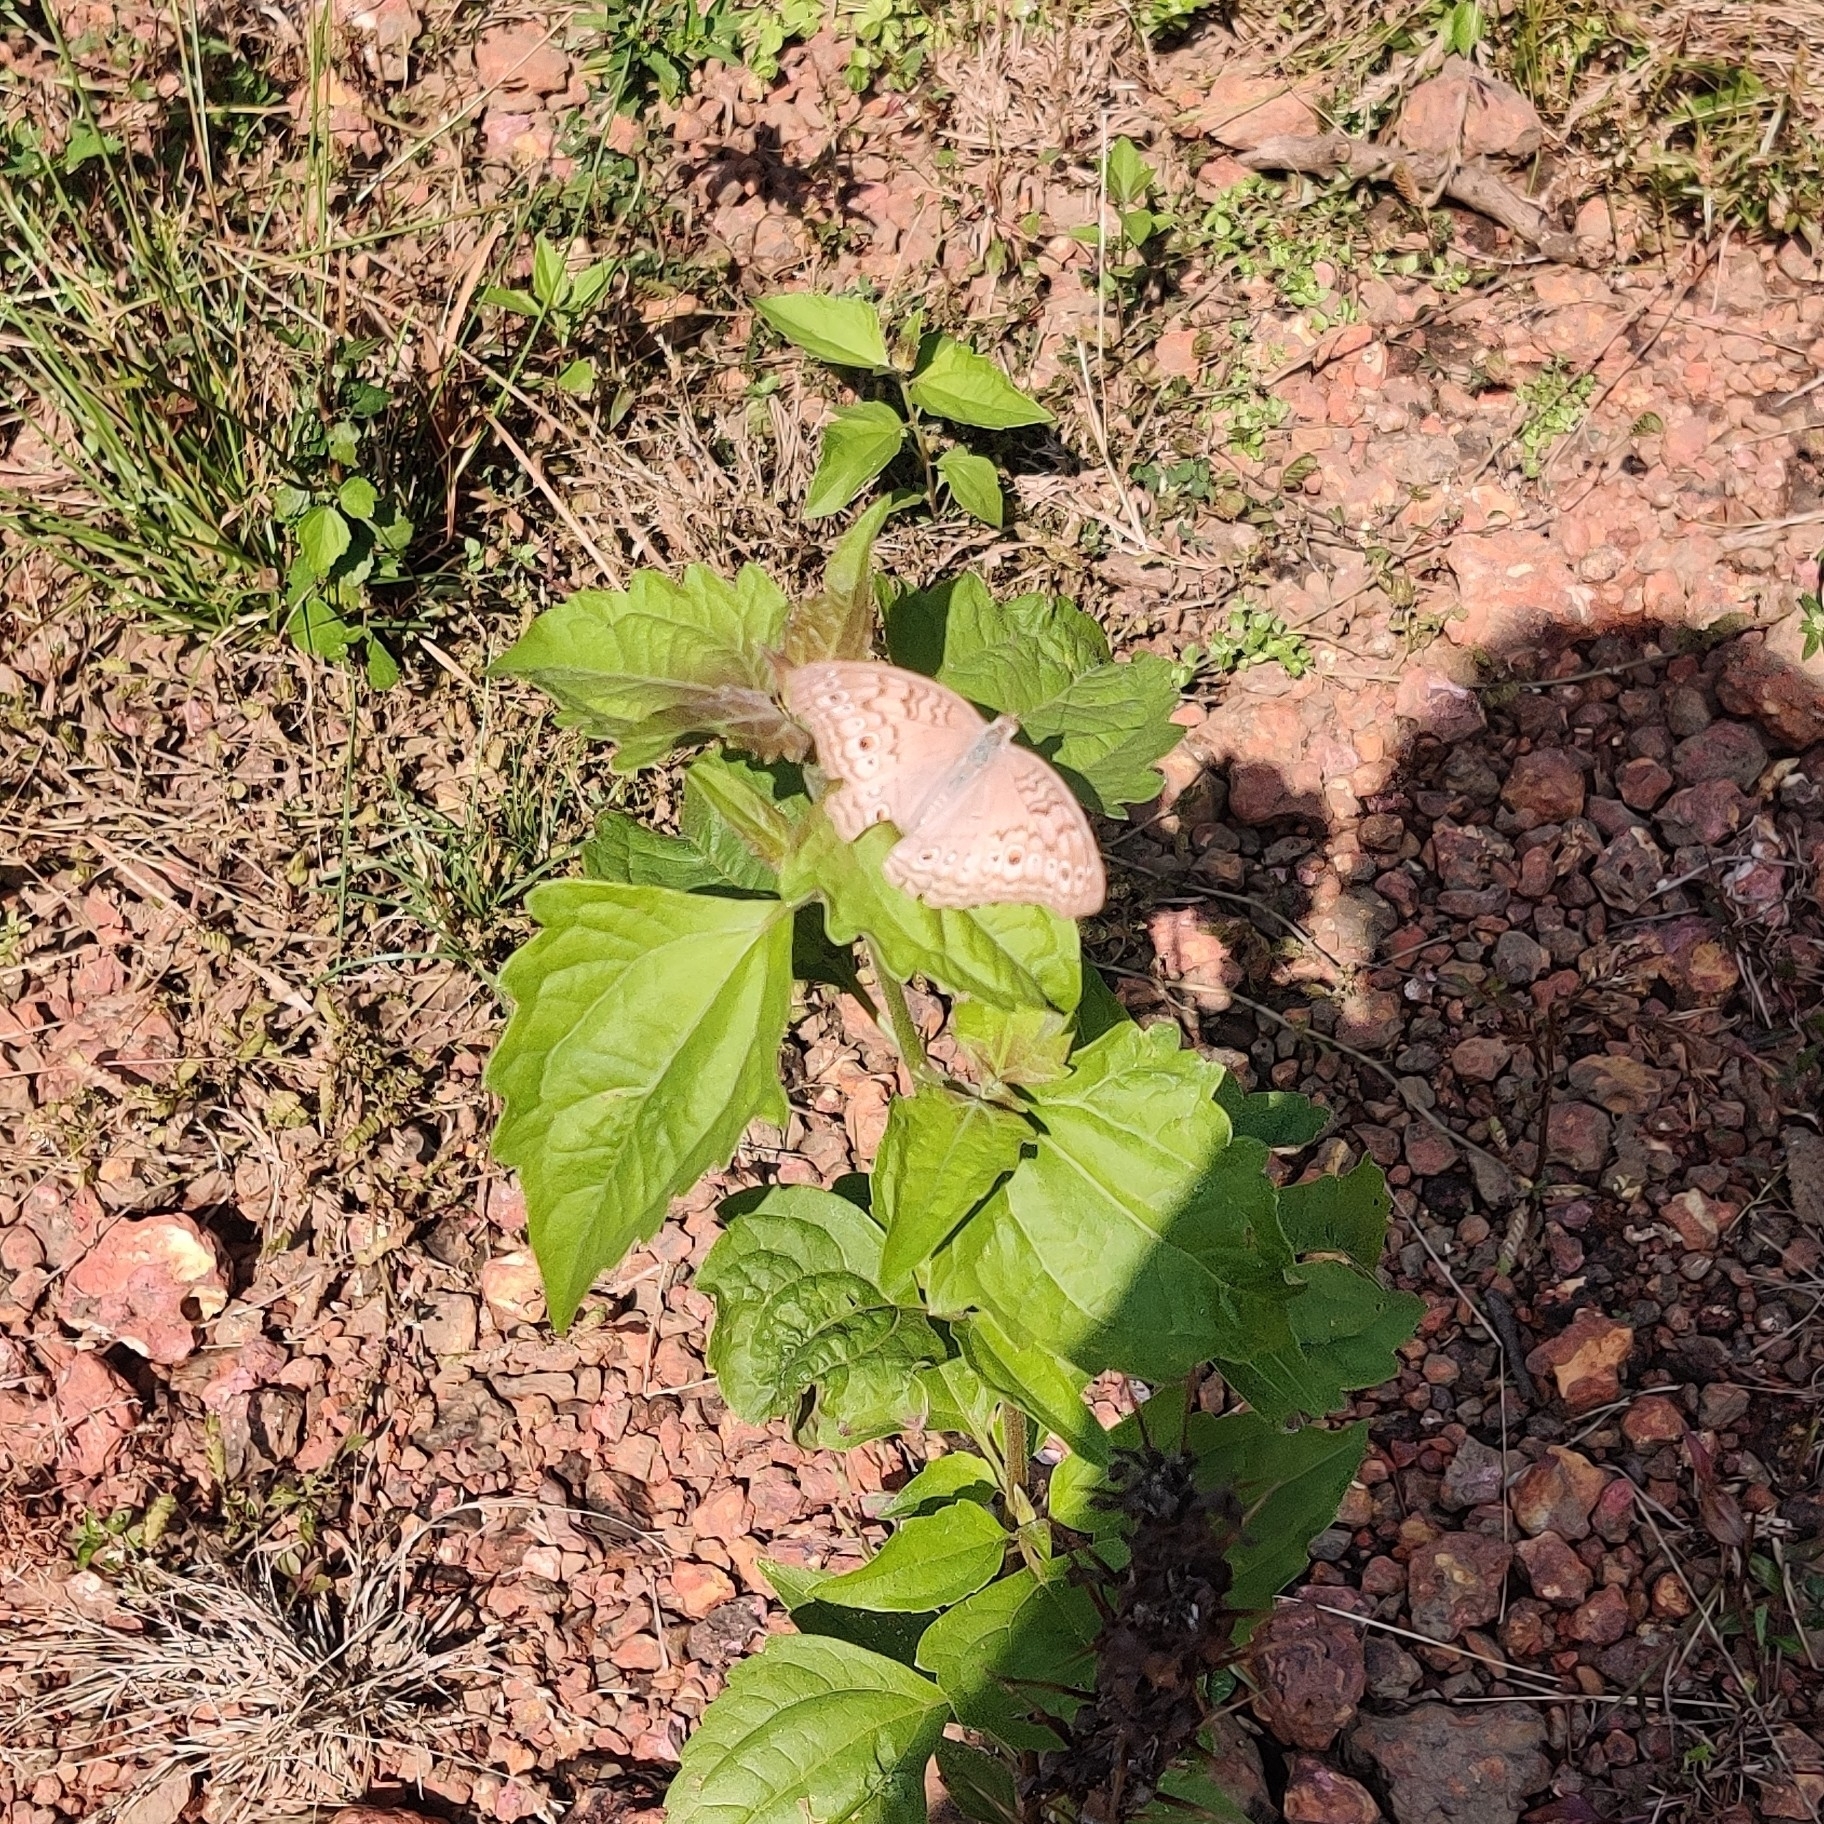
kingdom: Animalia
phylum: Arthropoda
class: Insecta
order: Lepidoptera
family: Nymphalidae
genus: Junonia
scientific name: Junonia atlites
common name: Grey pansy
